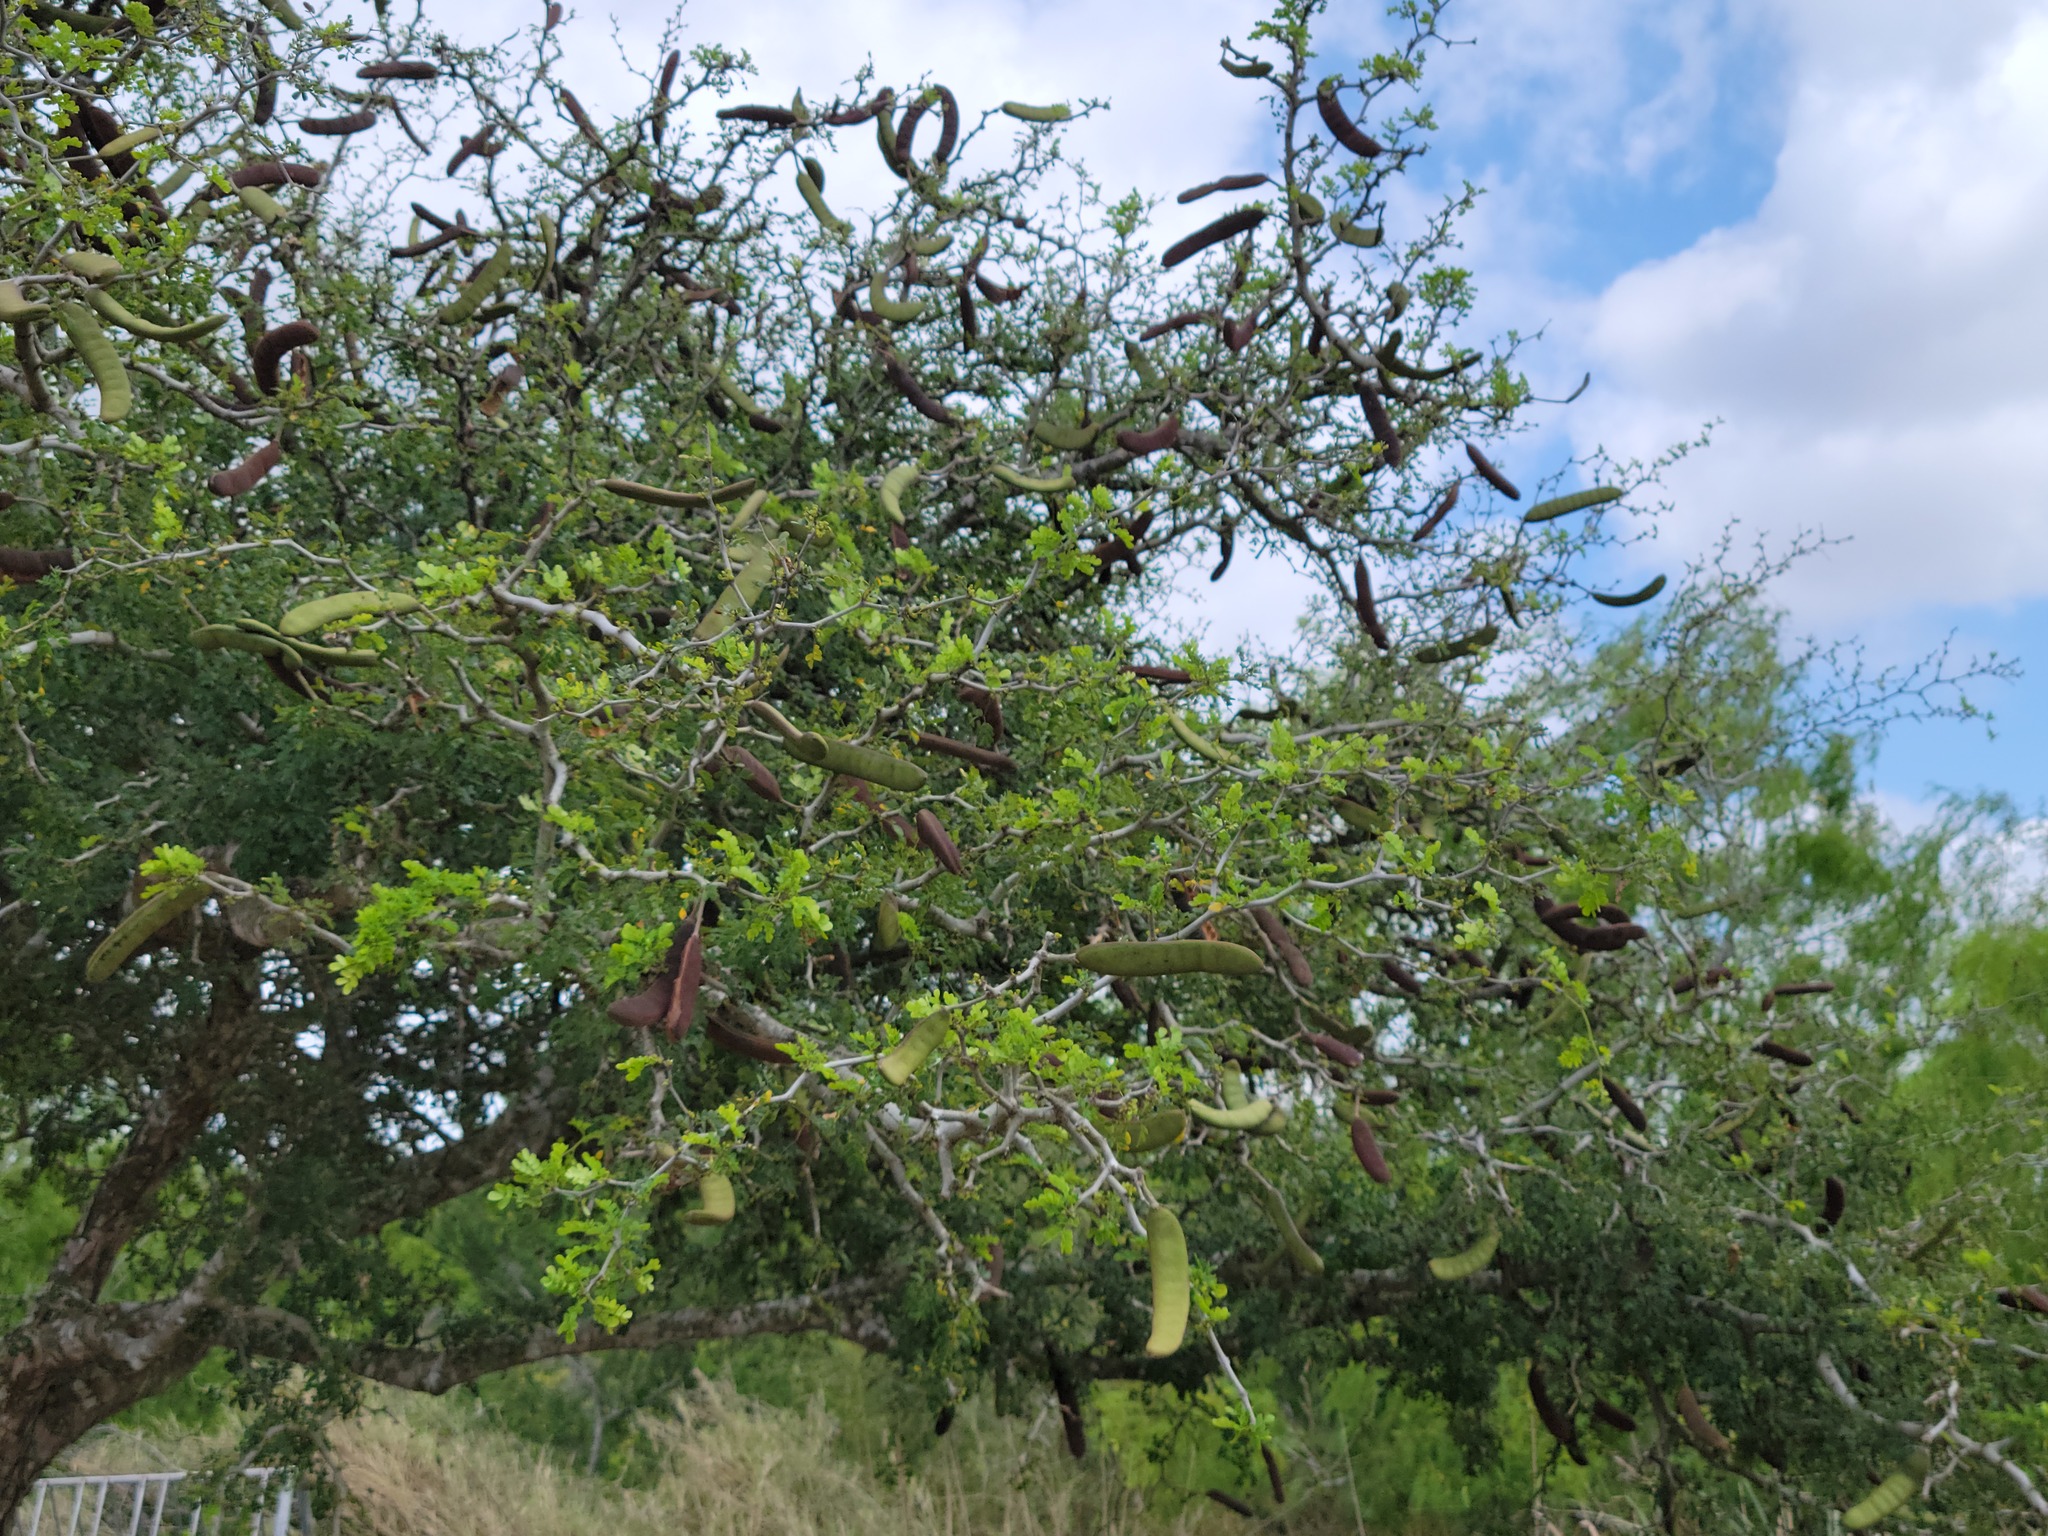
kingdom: Plantae
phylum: Tracheophyta
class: Magnoliopsida
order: Fabales
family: Fabaceae
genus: Ebenopsis
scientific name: Ebenopsis ebano
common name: Ebony blackbead
